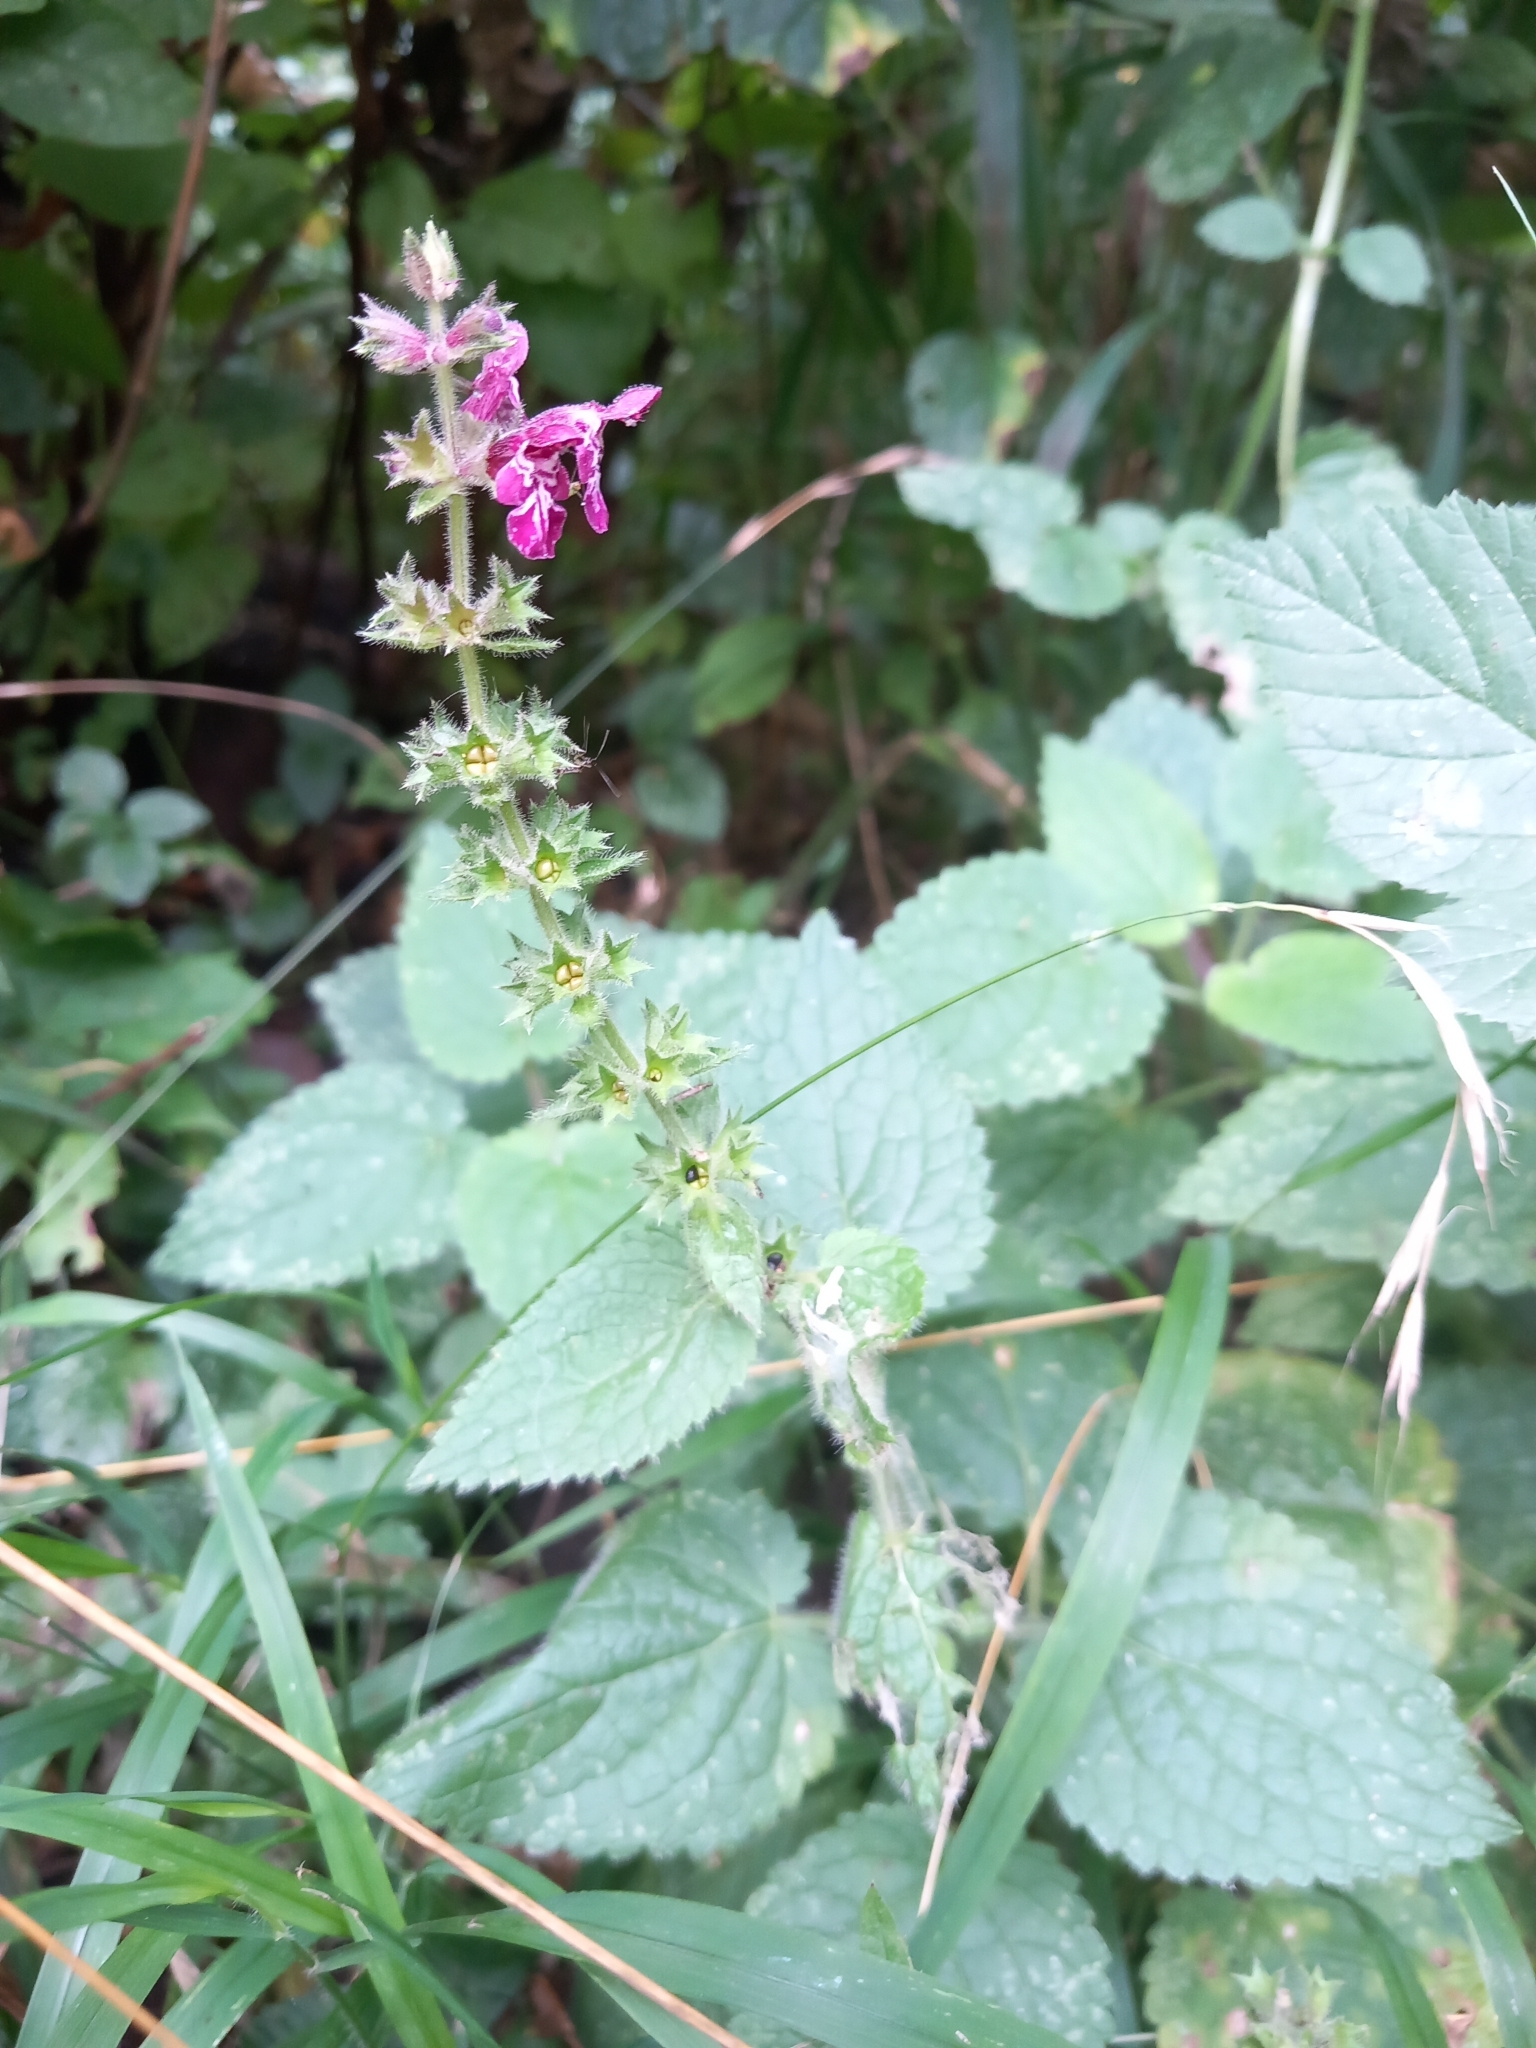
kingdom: Plantae
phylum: Tracheophyta
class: Magnoliopsida
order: Lamiales
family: Lamiaceae
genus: Stachys
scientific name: Stachys sylvatica
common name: Hedge woundwort
